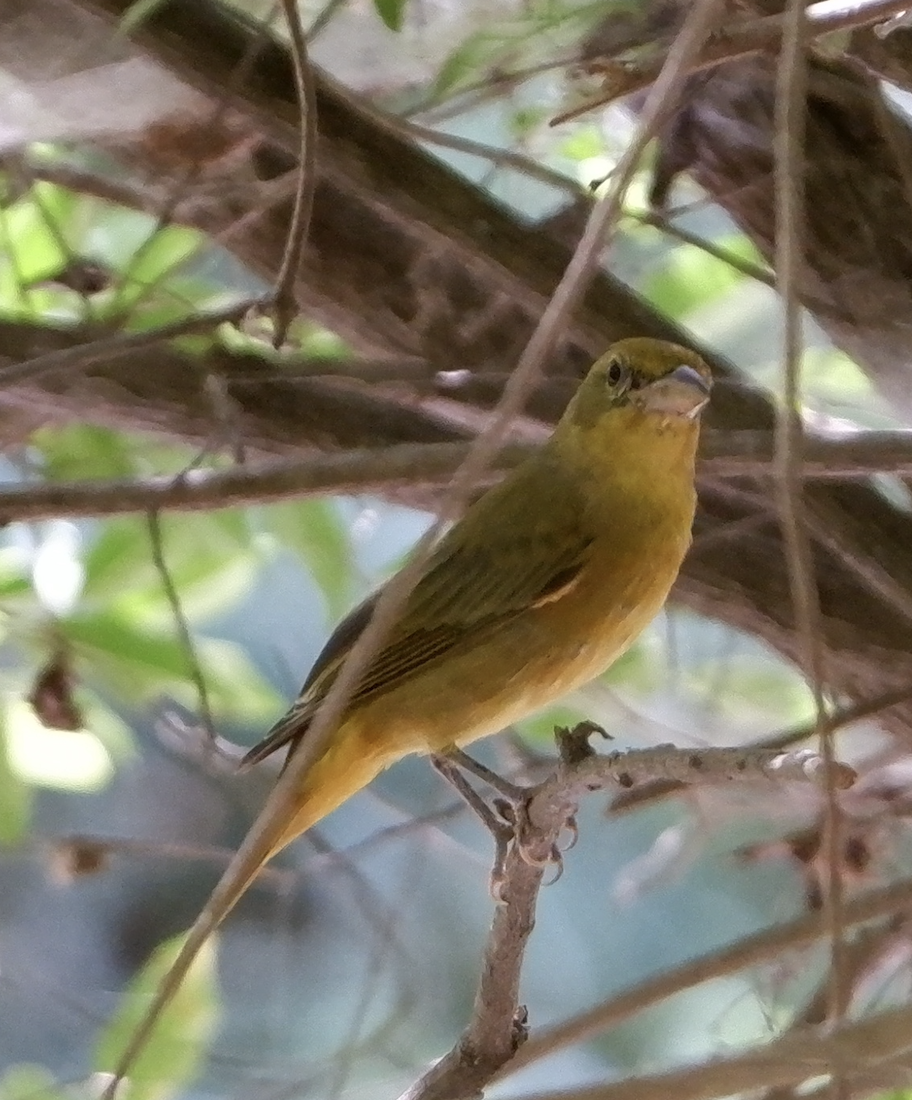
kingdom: Animalia
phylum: Chordata
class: Aves
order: Passeriformes
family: Cardinalidae
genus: Piranga
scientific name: Piranga rubra
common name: Summer tanager
